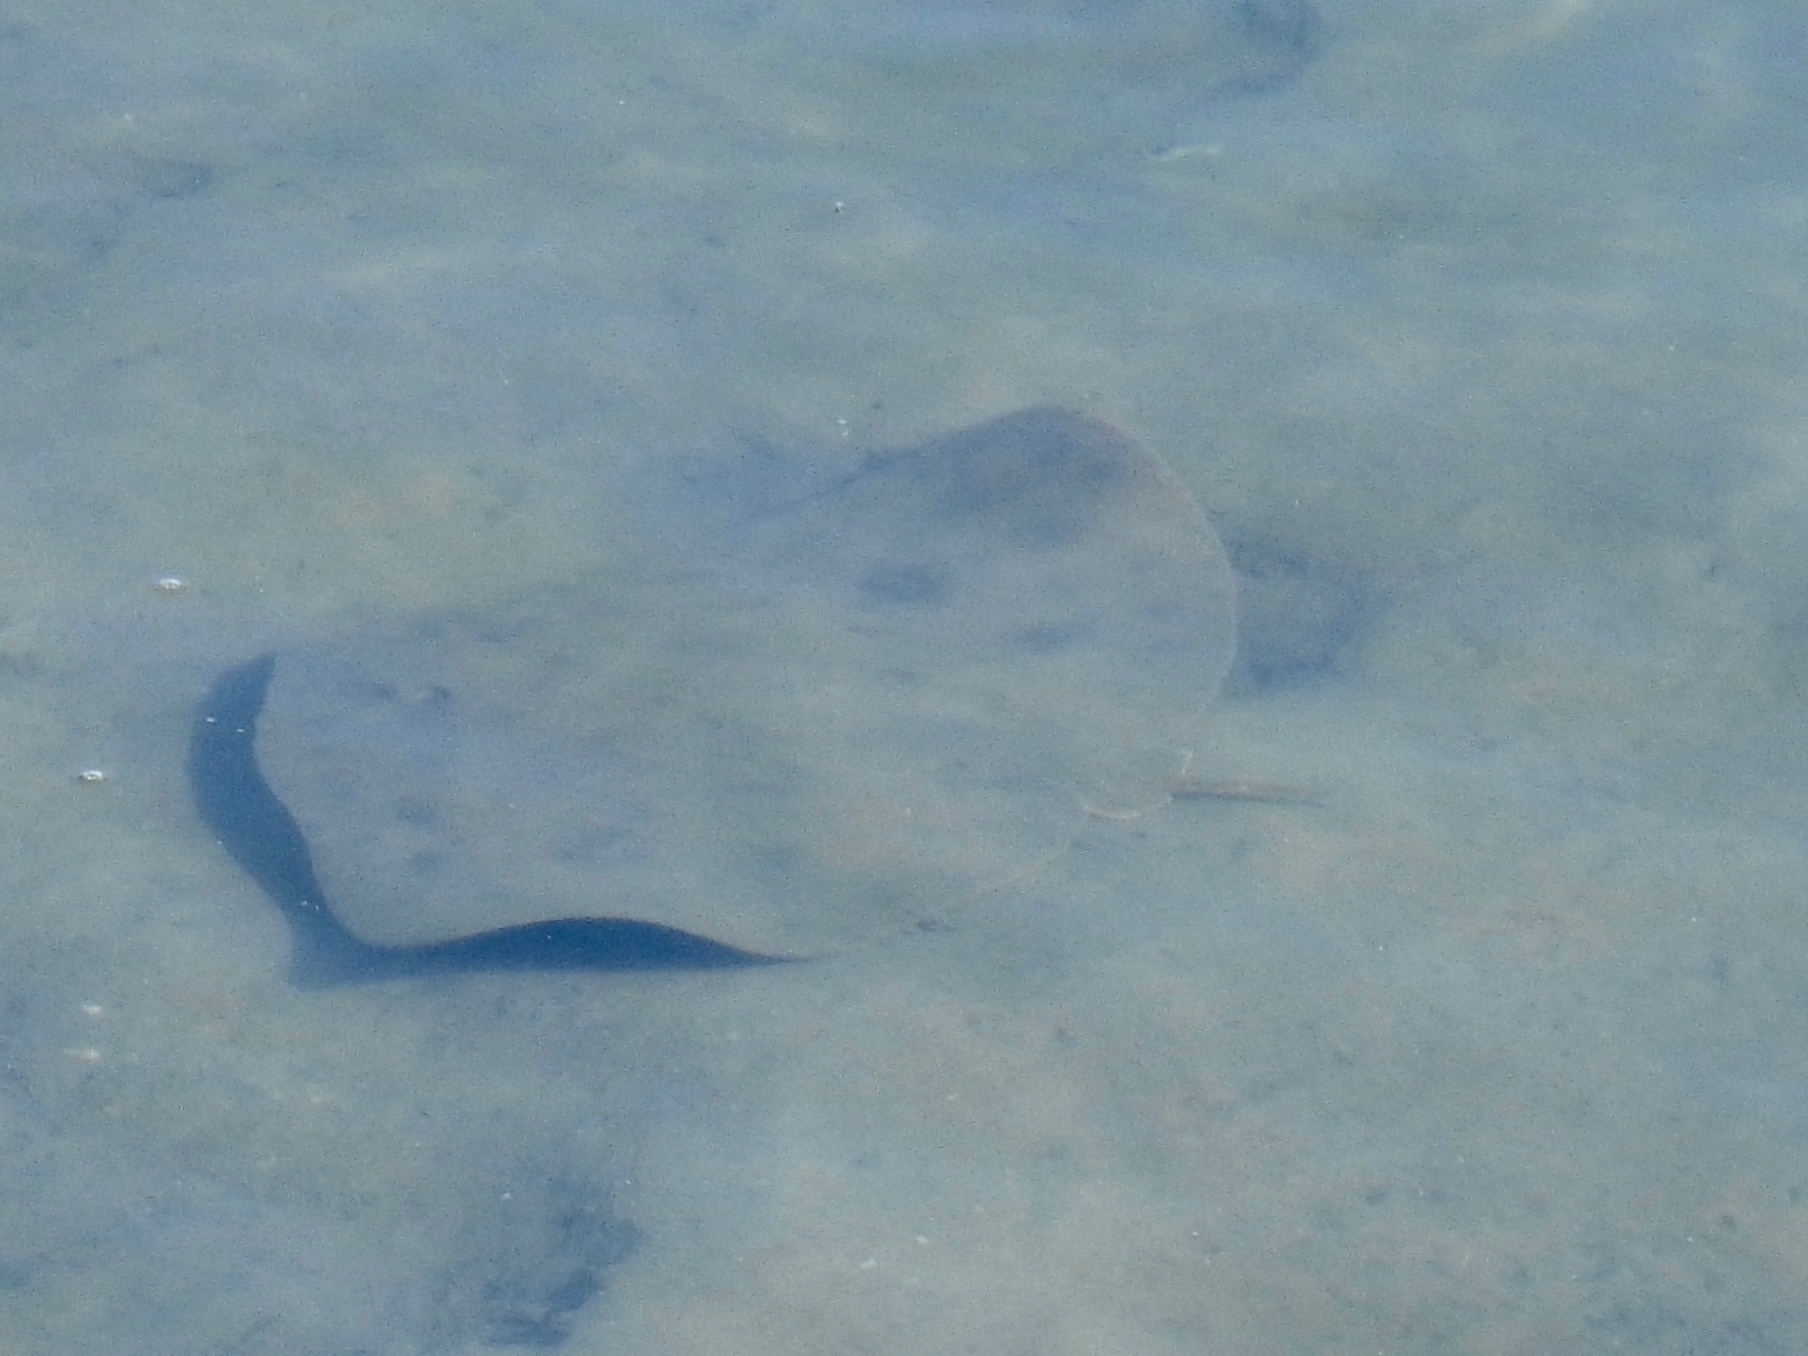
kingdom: Animalia
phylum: Chordata
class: Elasmobranchii
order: Myliobatiformes
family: Gymnuridae
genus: Gymnura
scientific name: Gymnura marmorata
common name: California butterfly ray
